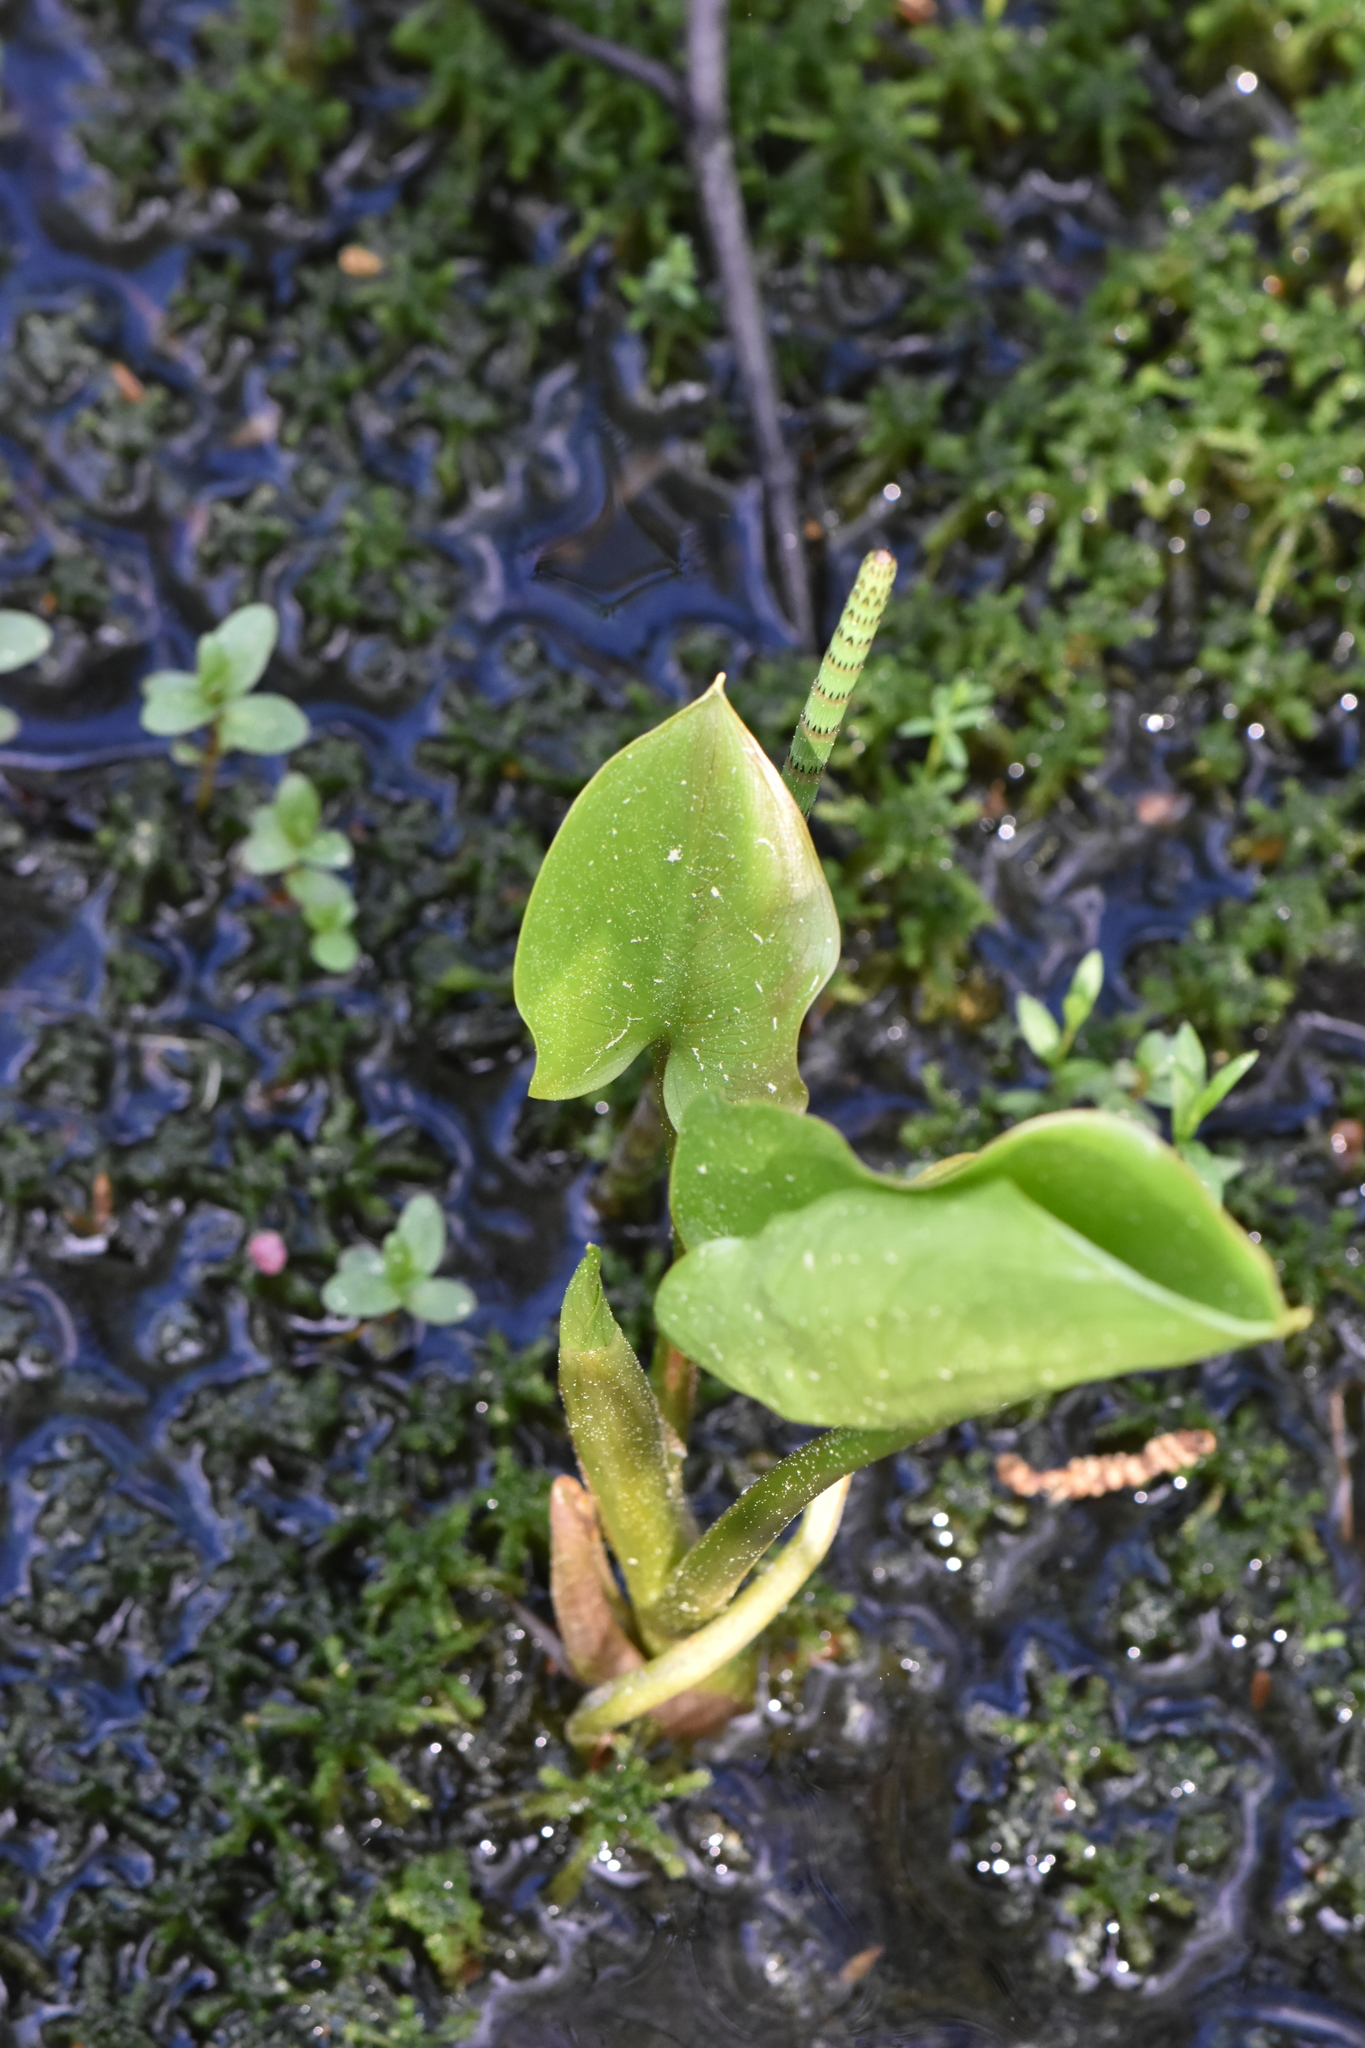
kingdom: Plantae
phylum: Tracheophyta
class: Liliopsida
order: Alismatales
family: Araceae
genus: Calla
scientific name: Calla palustris
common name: Bog arum
